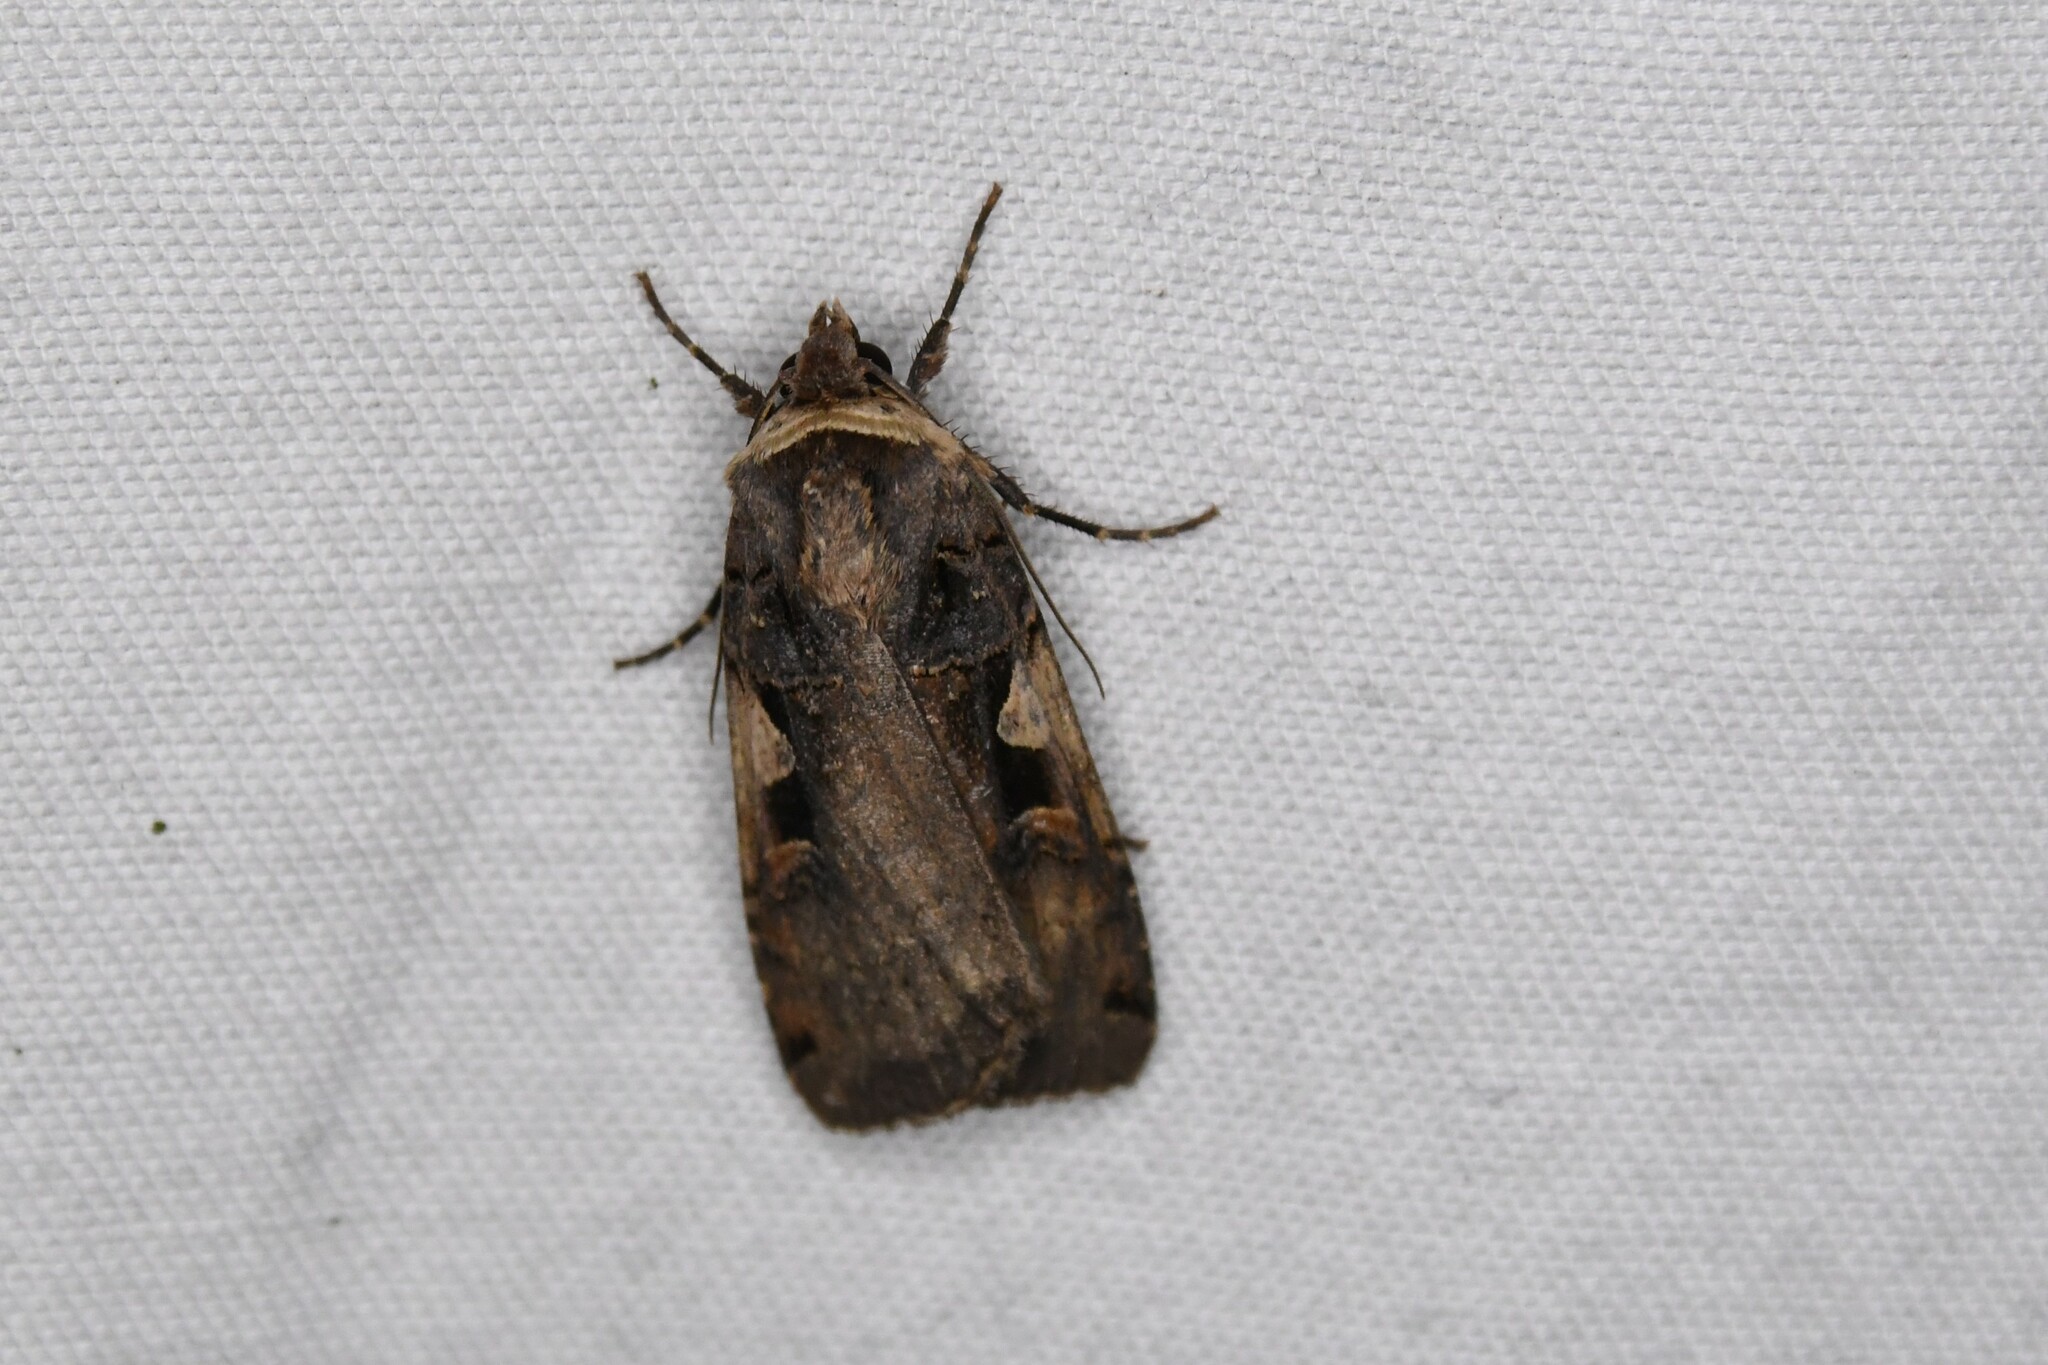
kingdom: Animalia
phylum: Arthropoda
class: Insecta
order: Lepidoptera
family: Noctuidae
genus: Xestia
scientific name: Xestia
